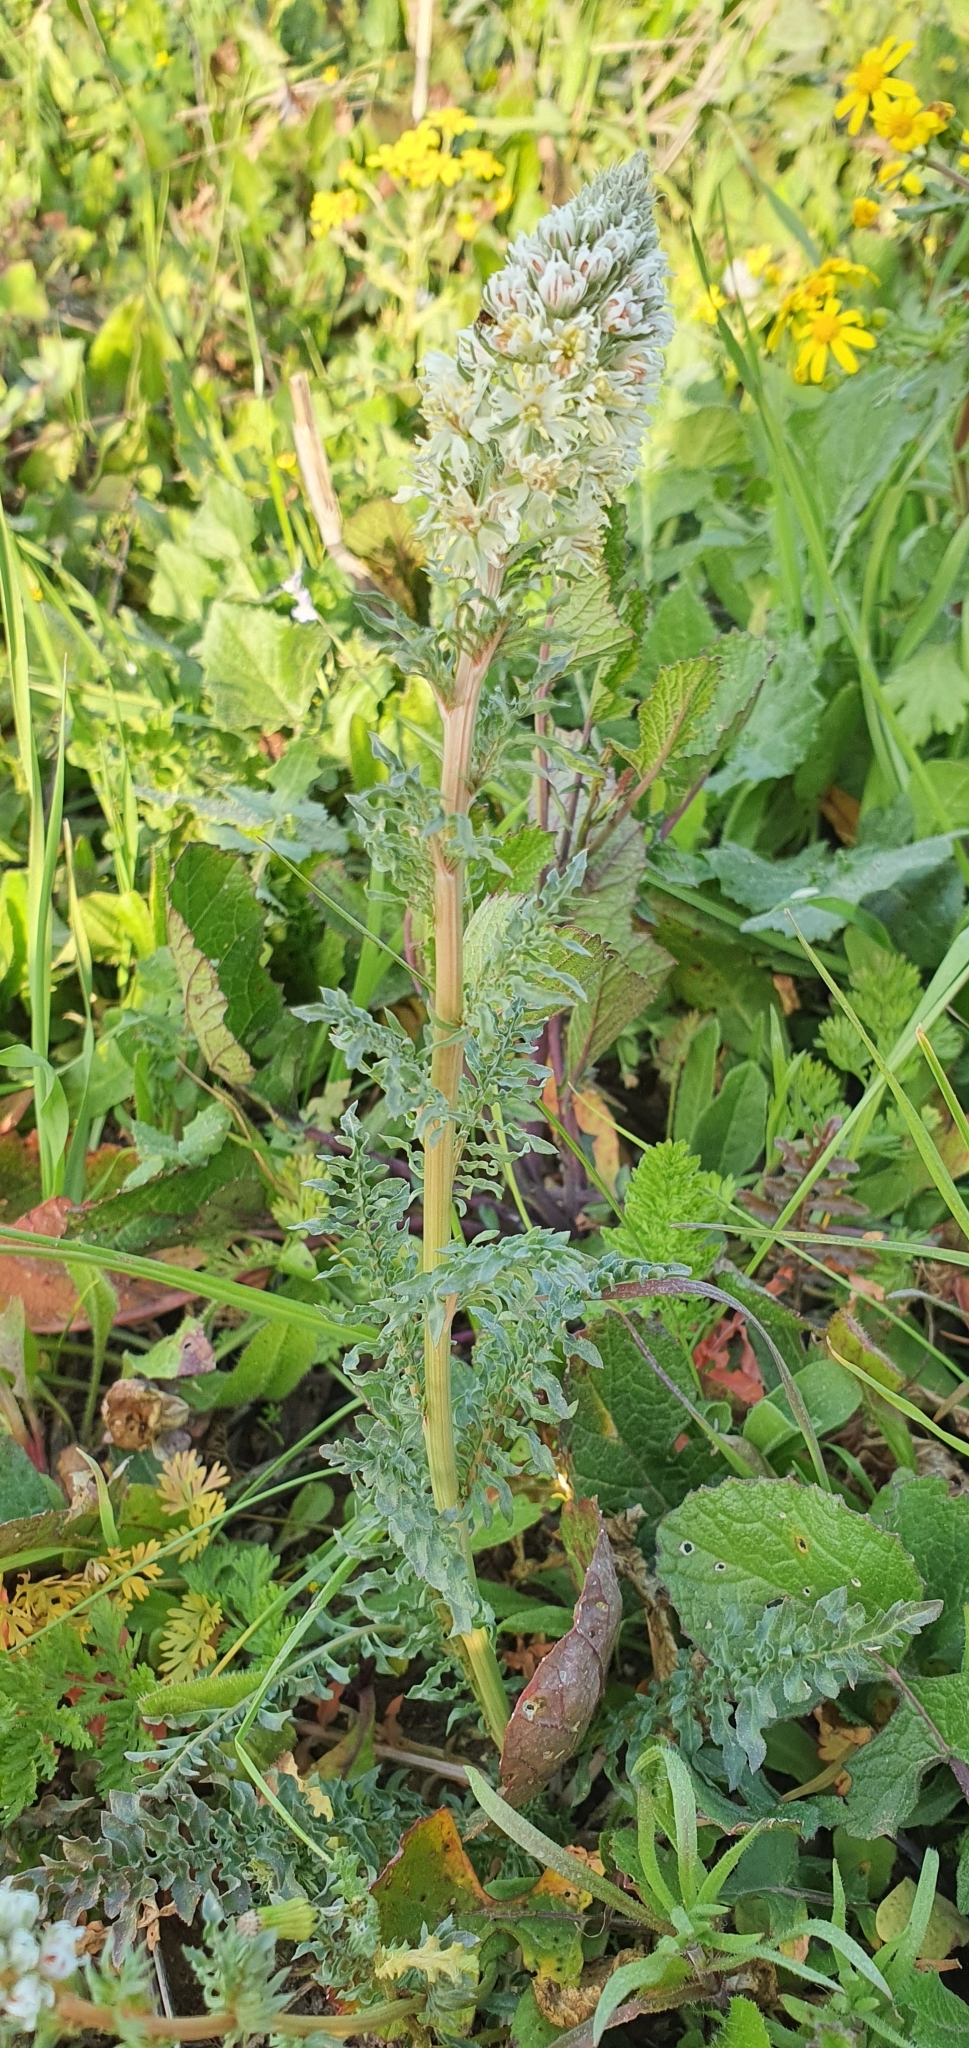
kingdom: Plantae
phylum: Tracheophyta
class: Magnoliopsida
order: Brassicales
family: Resedaceae
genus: Reseda
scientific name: Reseda alba
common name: White mignonette
